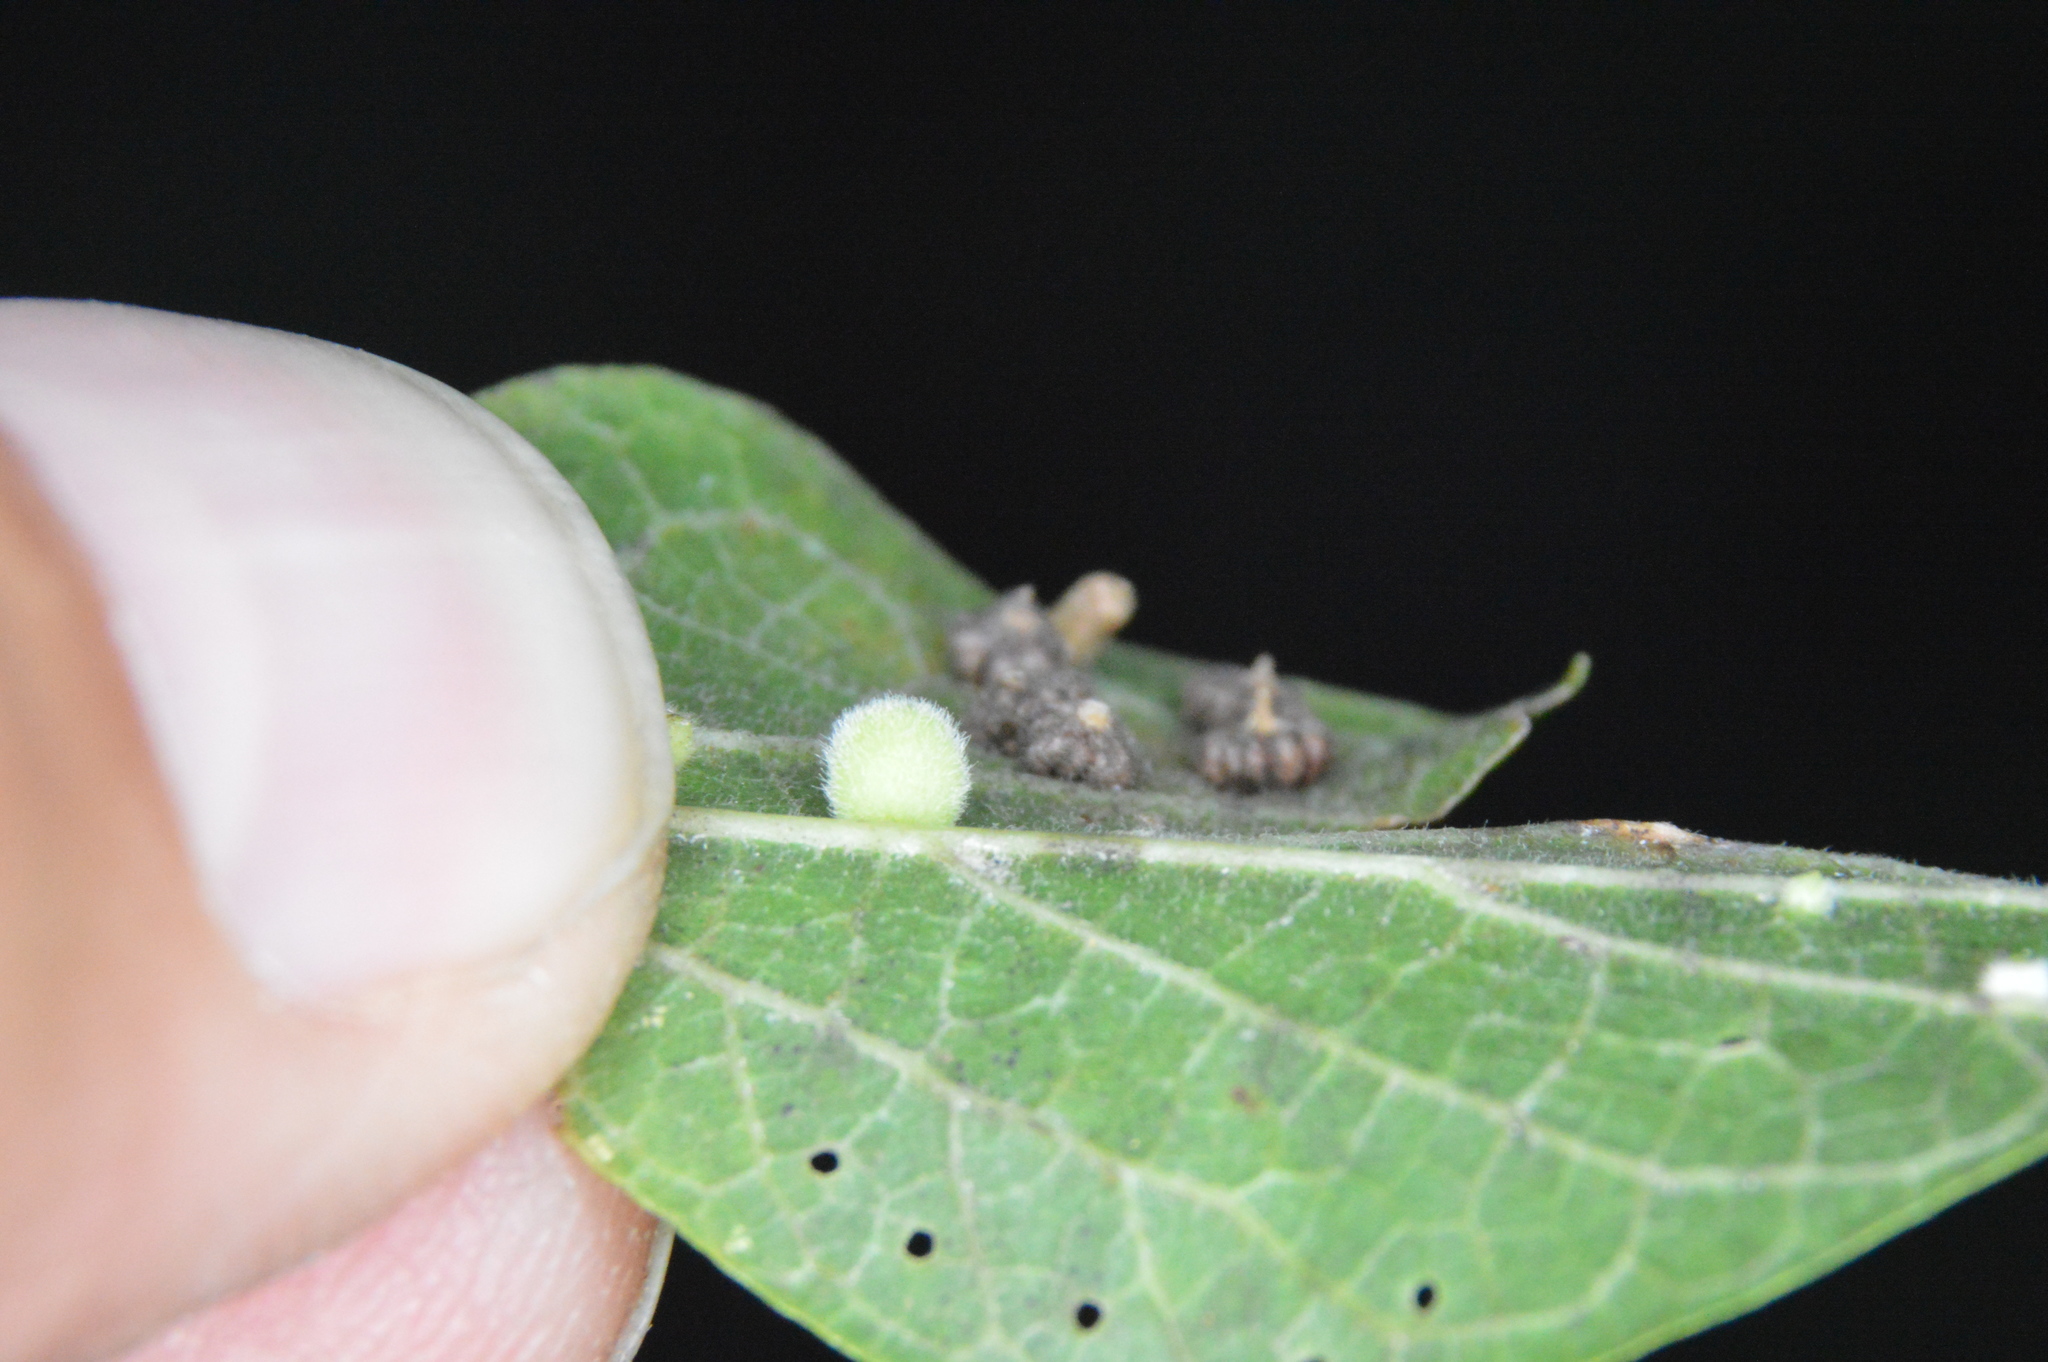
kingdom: Animalia
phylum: Arthropoda
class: Insecta
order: Diptera
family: Cecidomyiidae
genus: Celticecis
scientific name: Celticecis globosa
